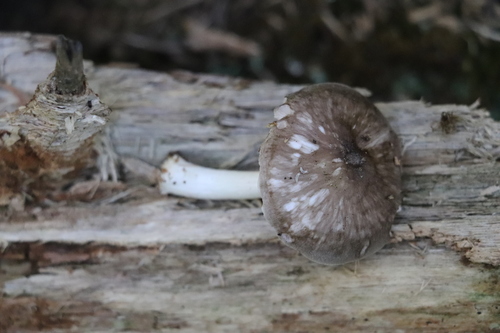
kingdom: Fungi
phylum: Basidiomycota
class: Agaricomycetes
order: Agaricales
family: Pluteaceae
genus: Pluteus
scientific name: Pluteus
